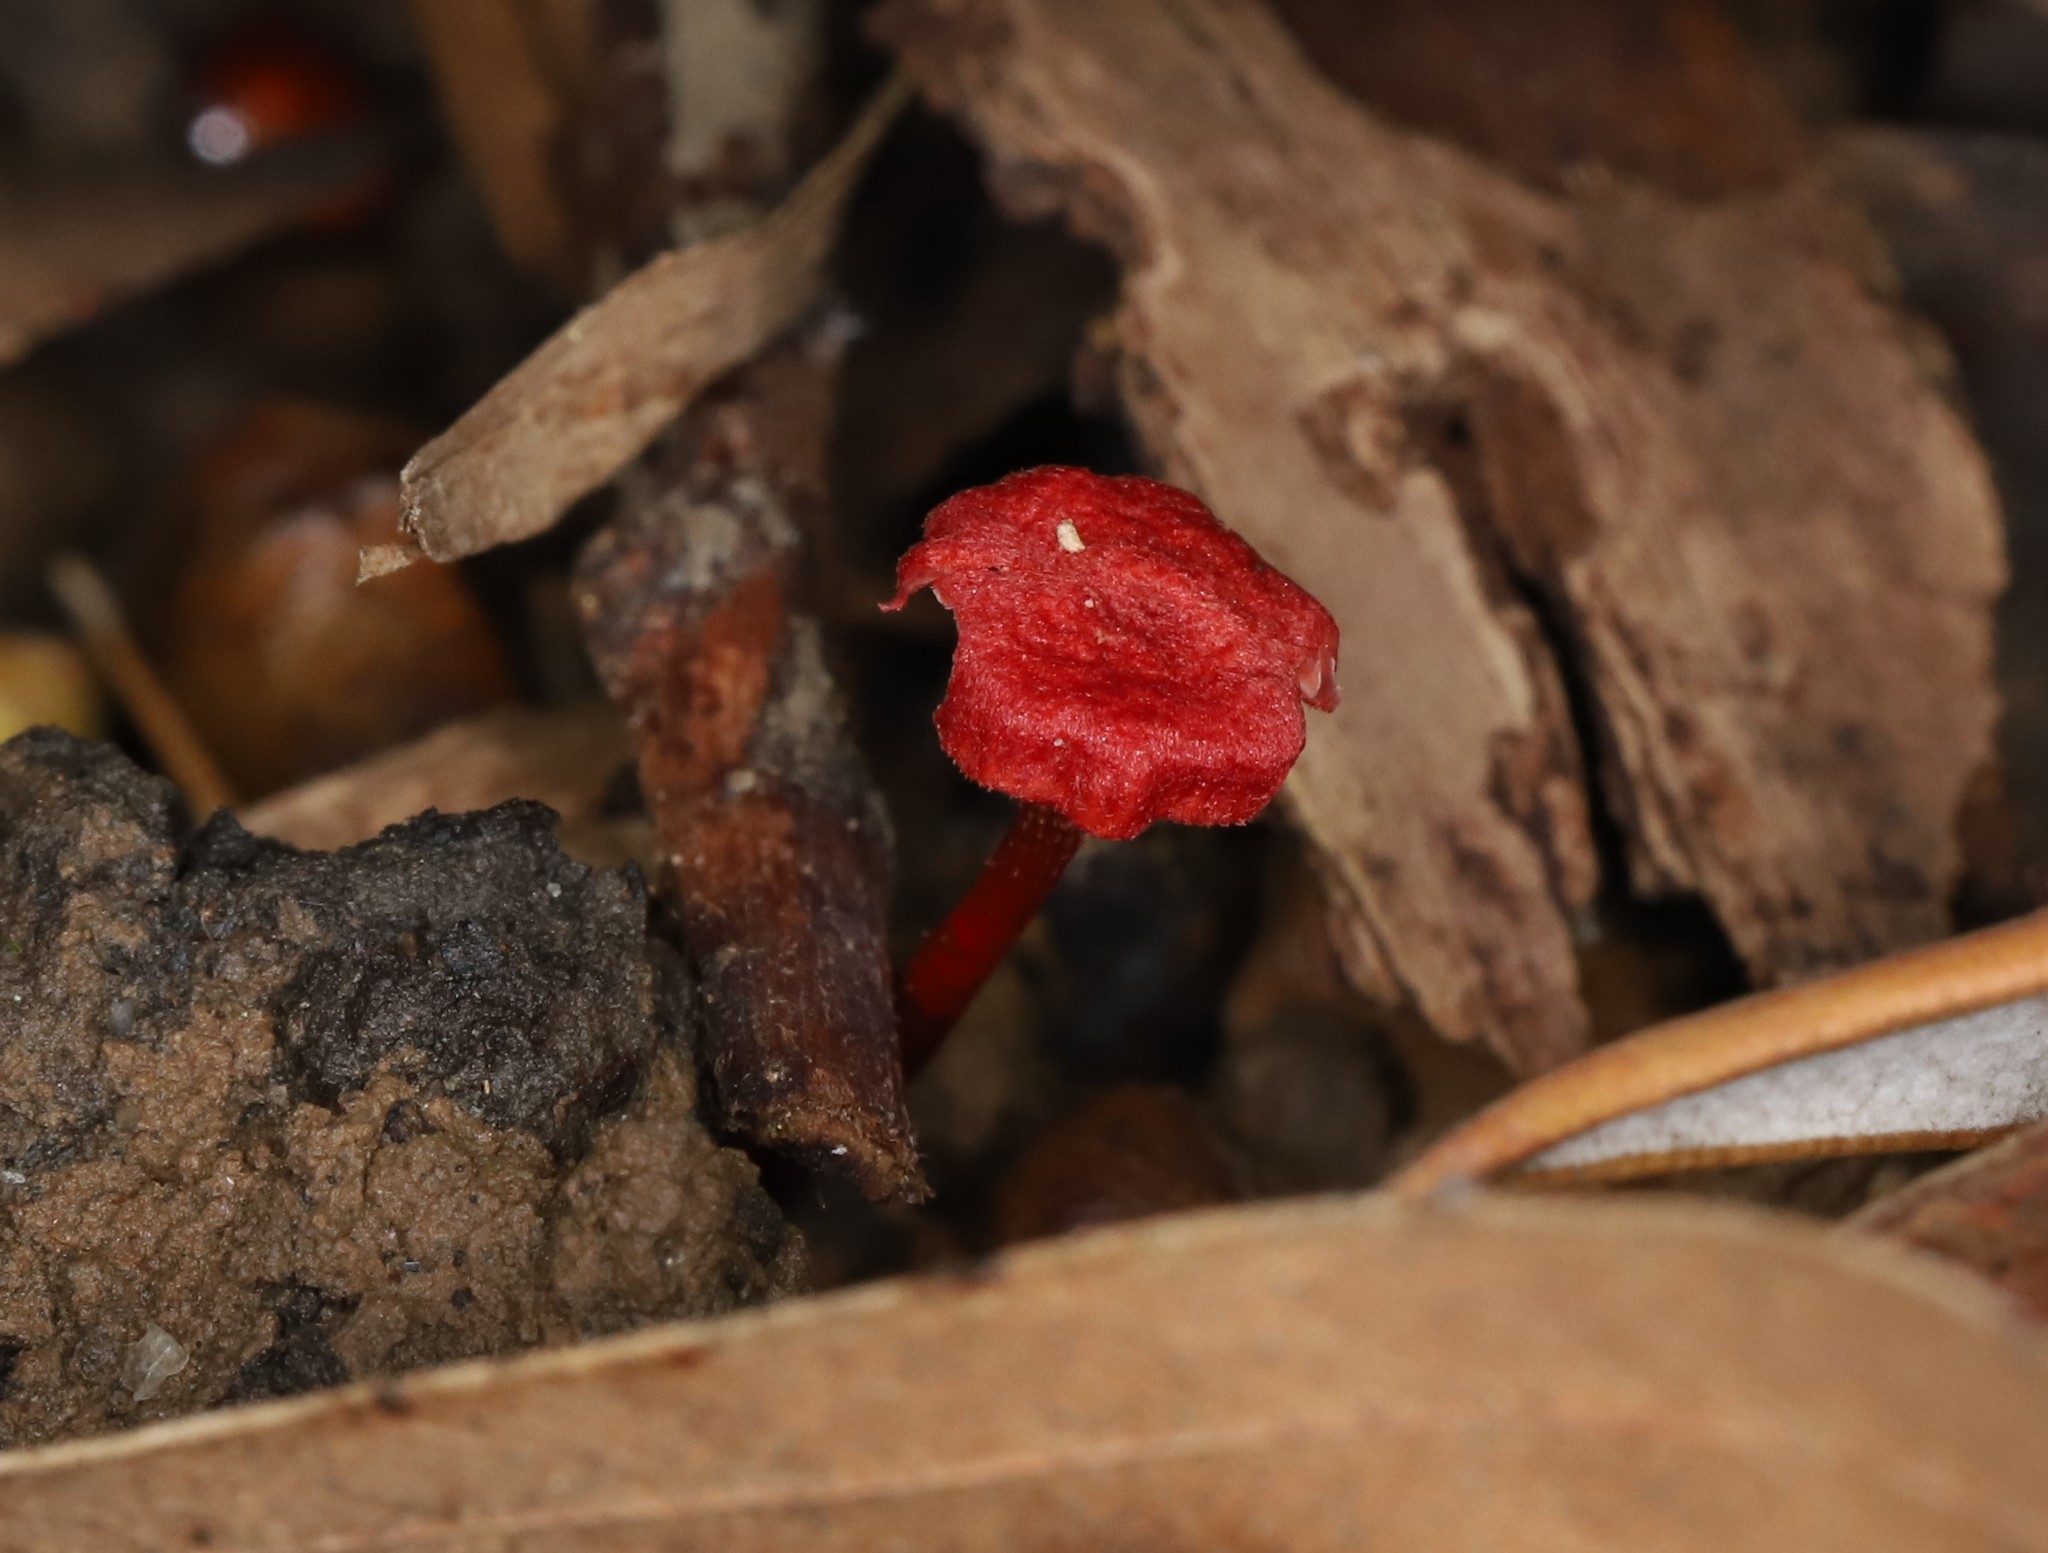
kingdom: Fungi
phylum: Basidiomycota
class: Agaricomycetes
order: Agaricales
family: Mycenaceae
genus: Cruentomycena
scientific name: Cruentomycena viscidocruenta
